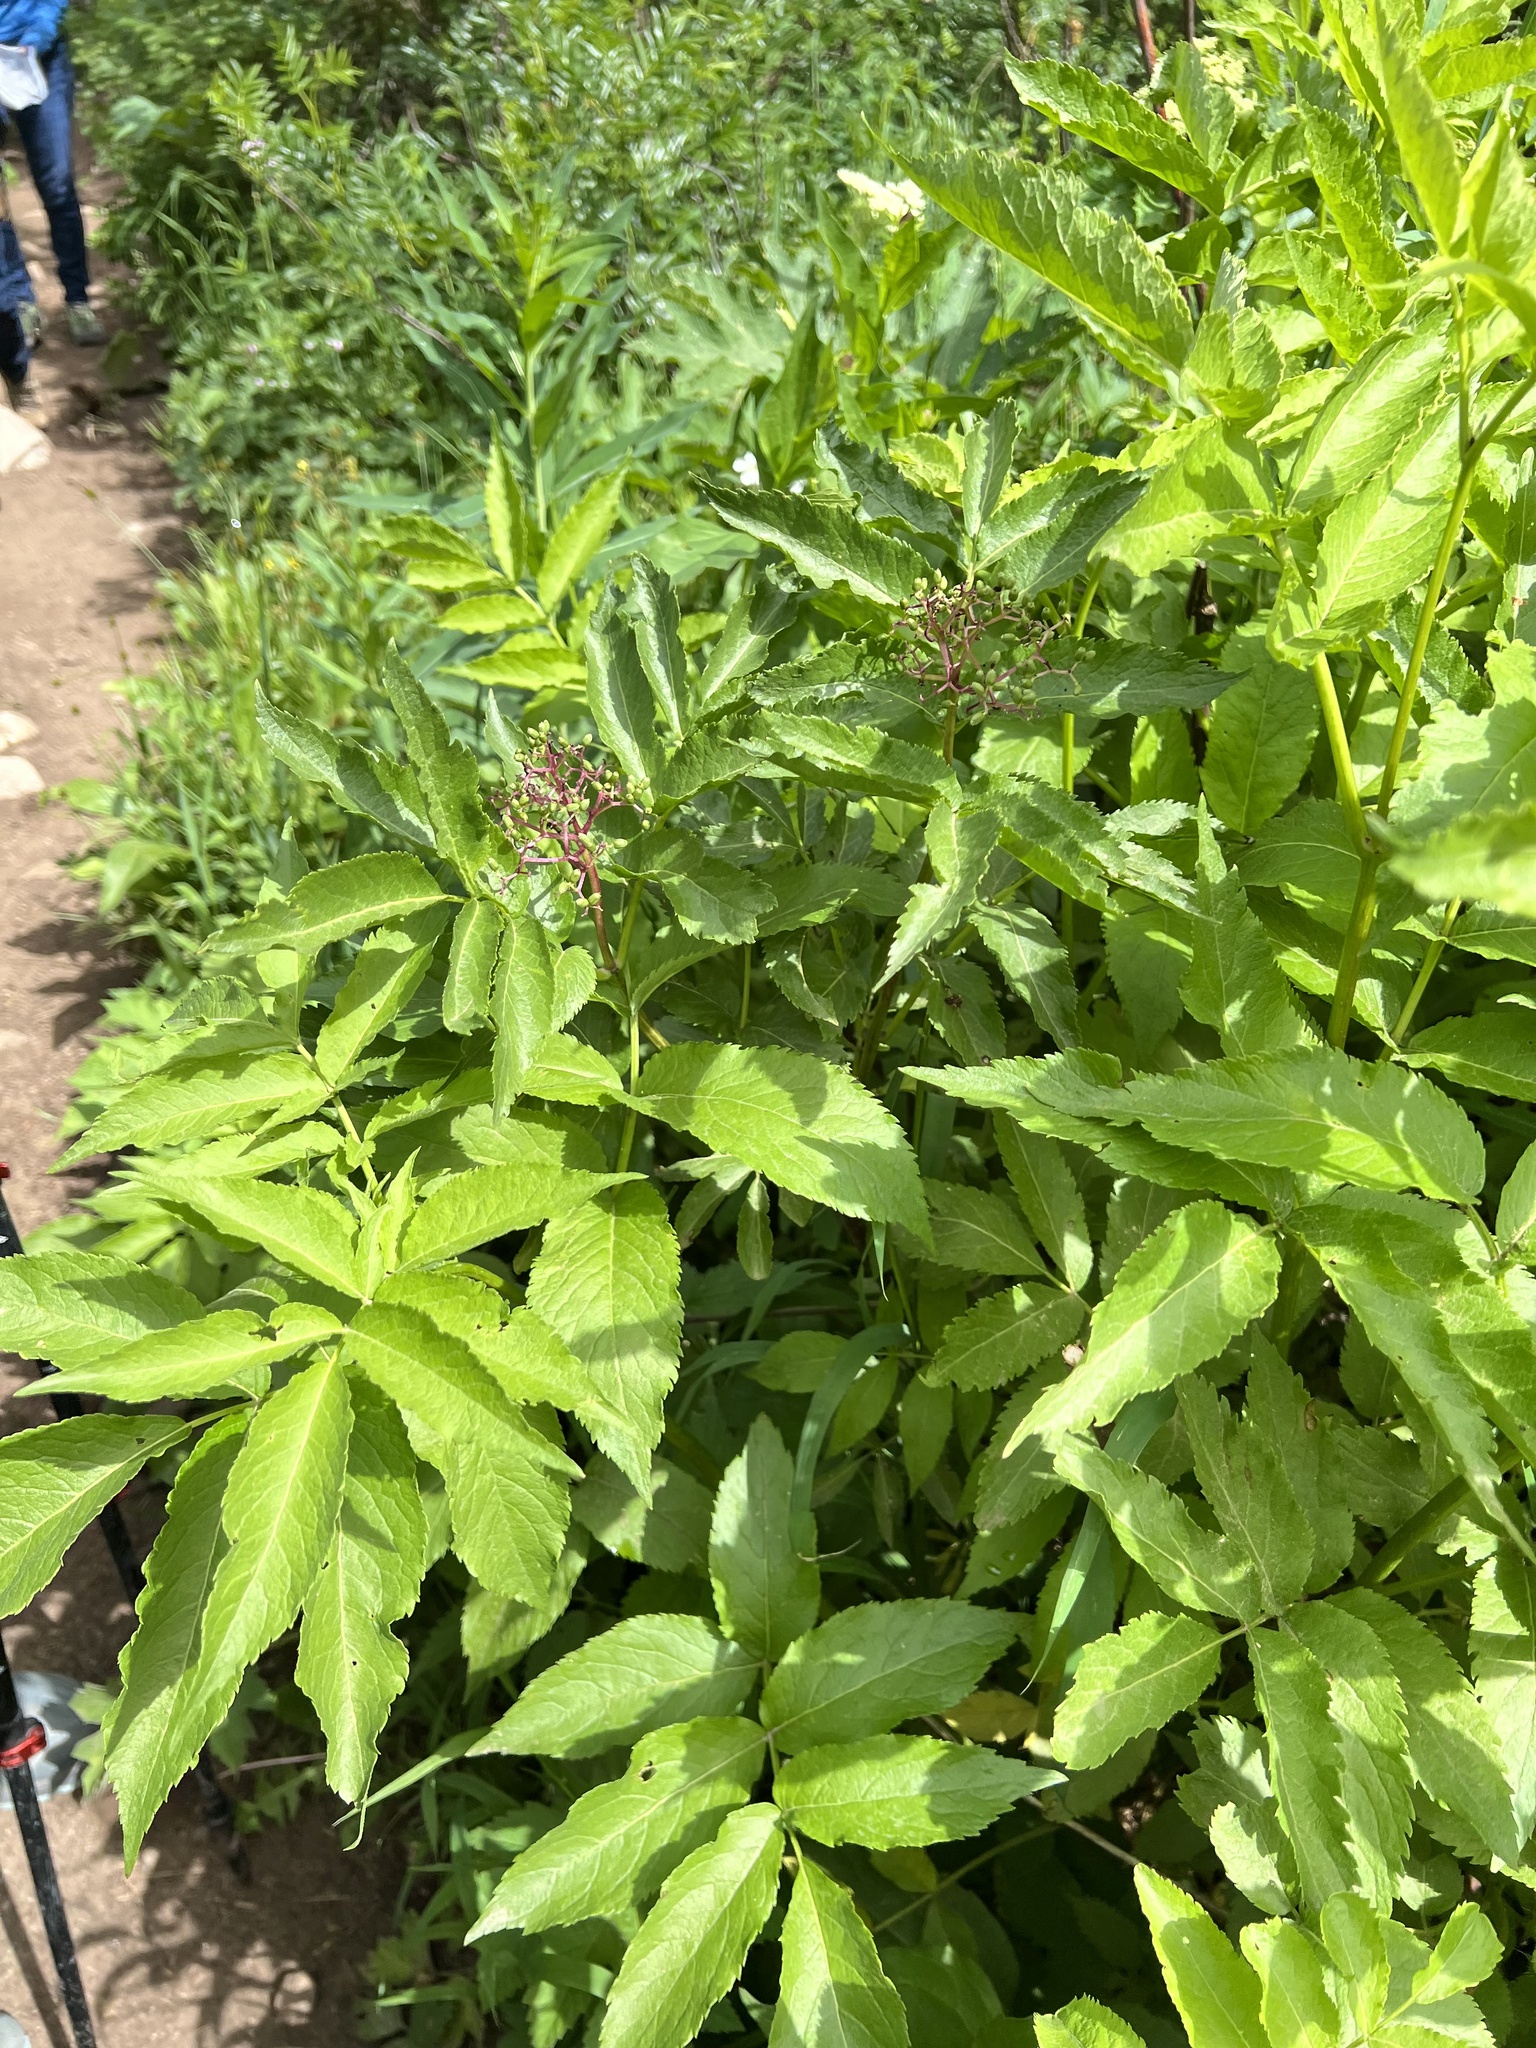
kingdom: Plantae
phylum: Tracheophyta
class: Magnoliopsida
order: Dipsacales
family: Viburnaceae
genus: Sambucus
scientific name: Sambucus racemosa
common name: Red-berried elder
